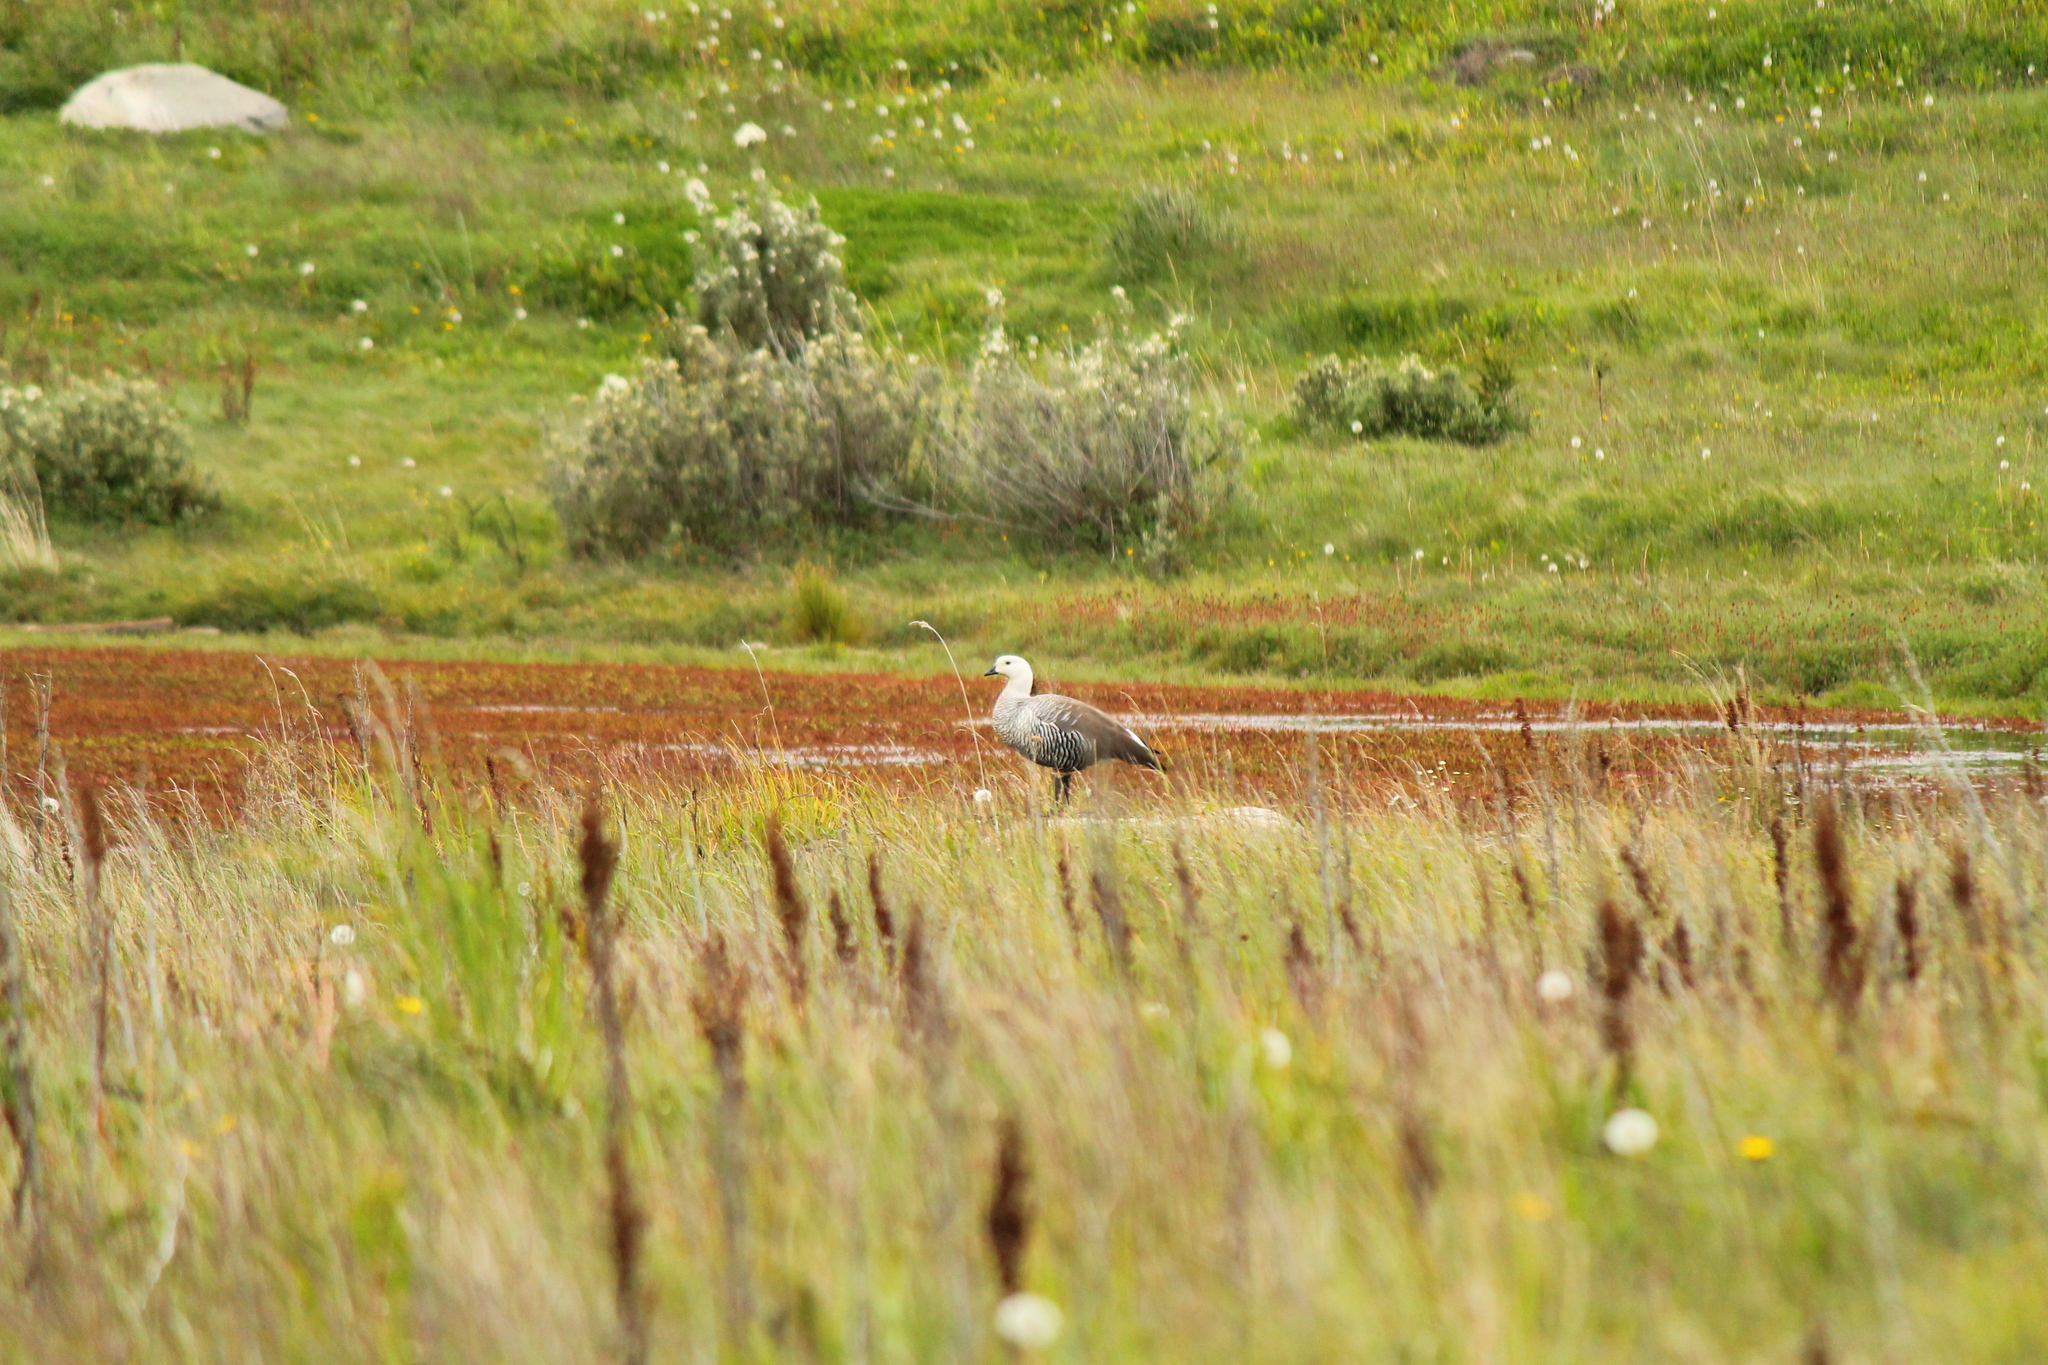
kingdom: Animalia
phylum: Chordata
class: Aves
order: Anseriformes
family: Anatidae
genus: Chloephaga
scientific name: Chloephaga picta
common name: Upland goose
